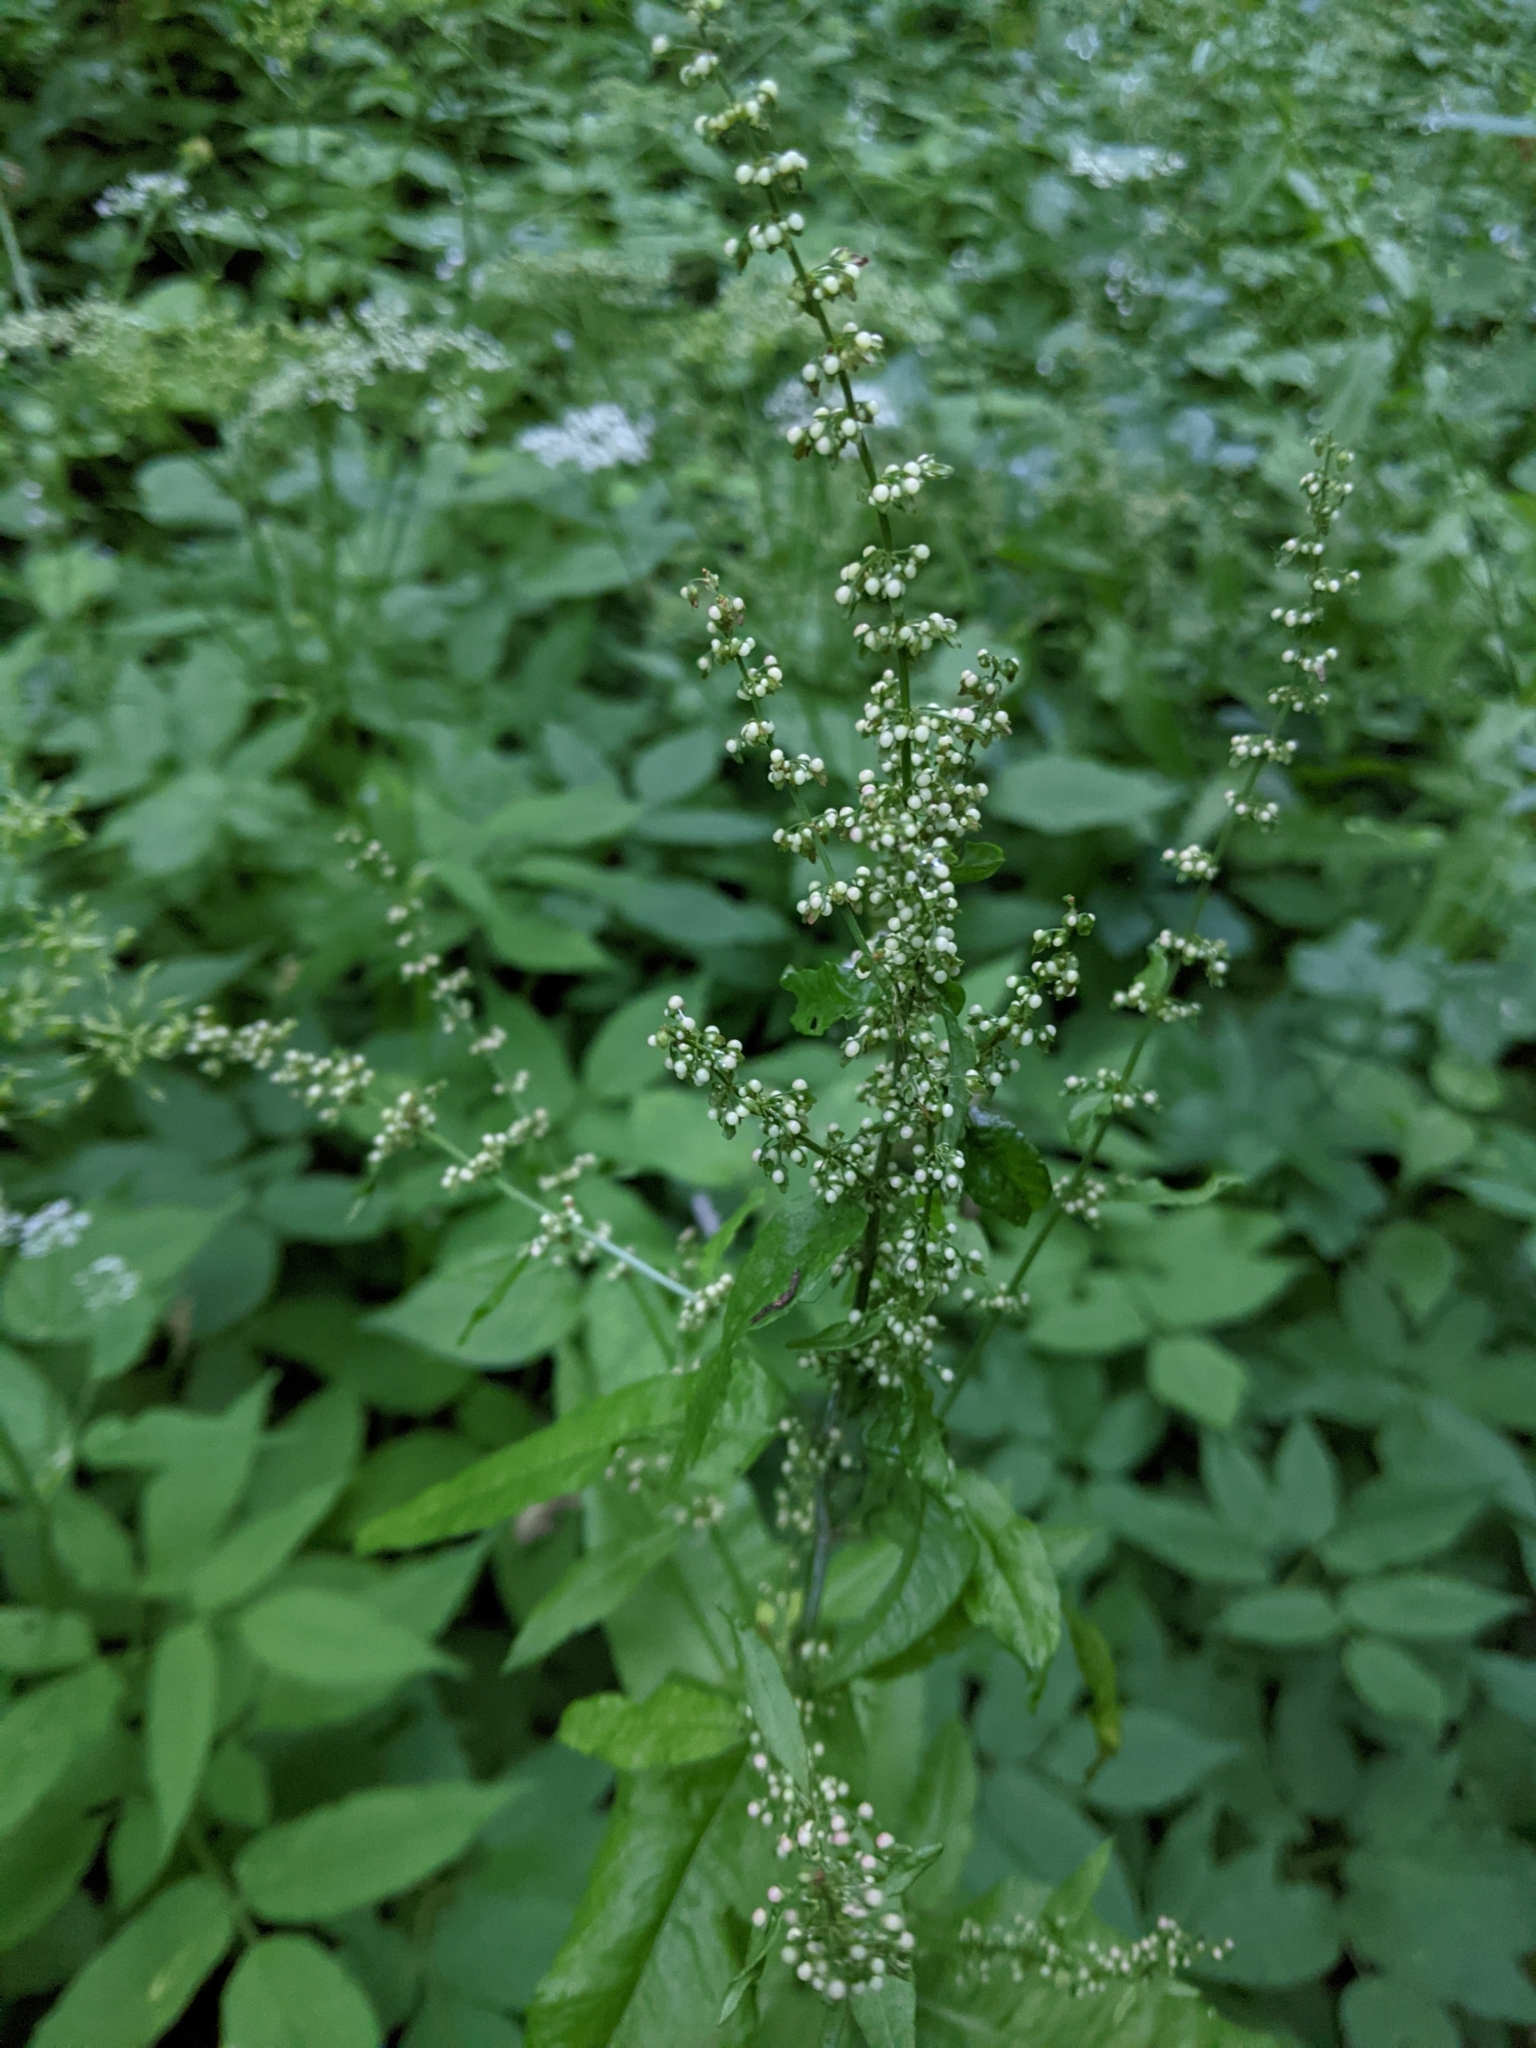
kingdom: Plantae
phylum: Tracheophyta
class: Magnoliopsida
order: Caryophyllales
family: Polygonaceae
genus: Rumex
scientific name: Rumex sanguineus
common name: Wood dock
